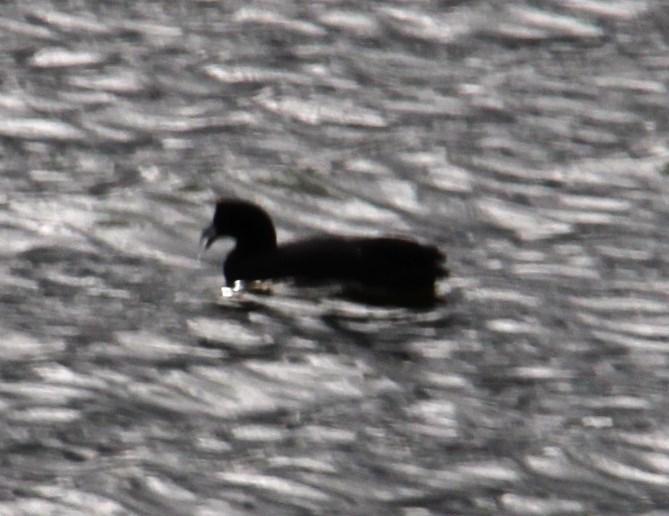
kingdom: Animalia
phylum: Chordata
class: Aves
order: Gruiformes
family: Rallidae
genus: Fulica
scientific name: Fulica cristata
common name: Red-knobbed coot
